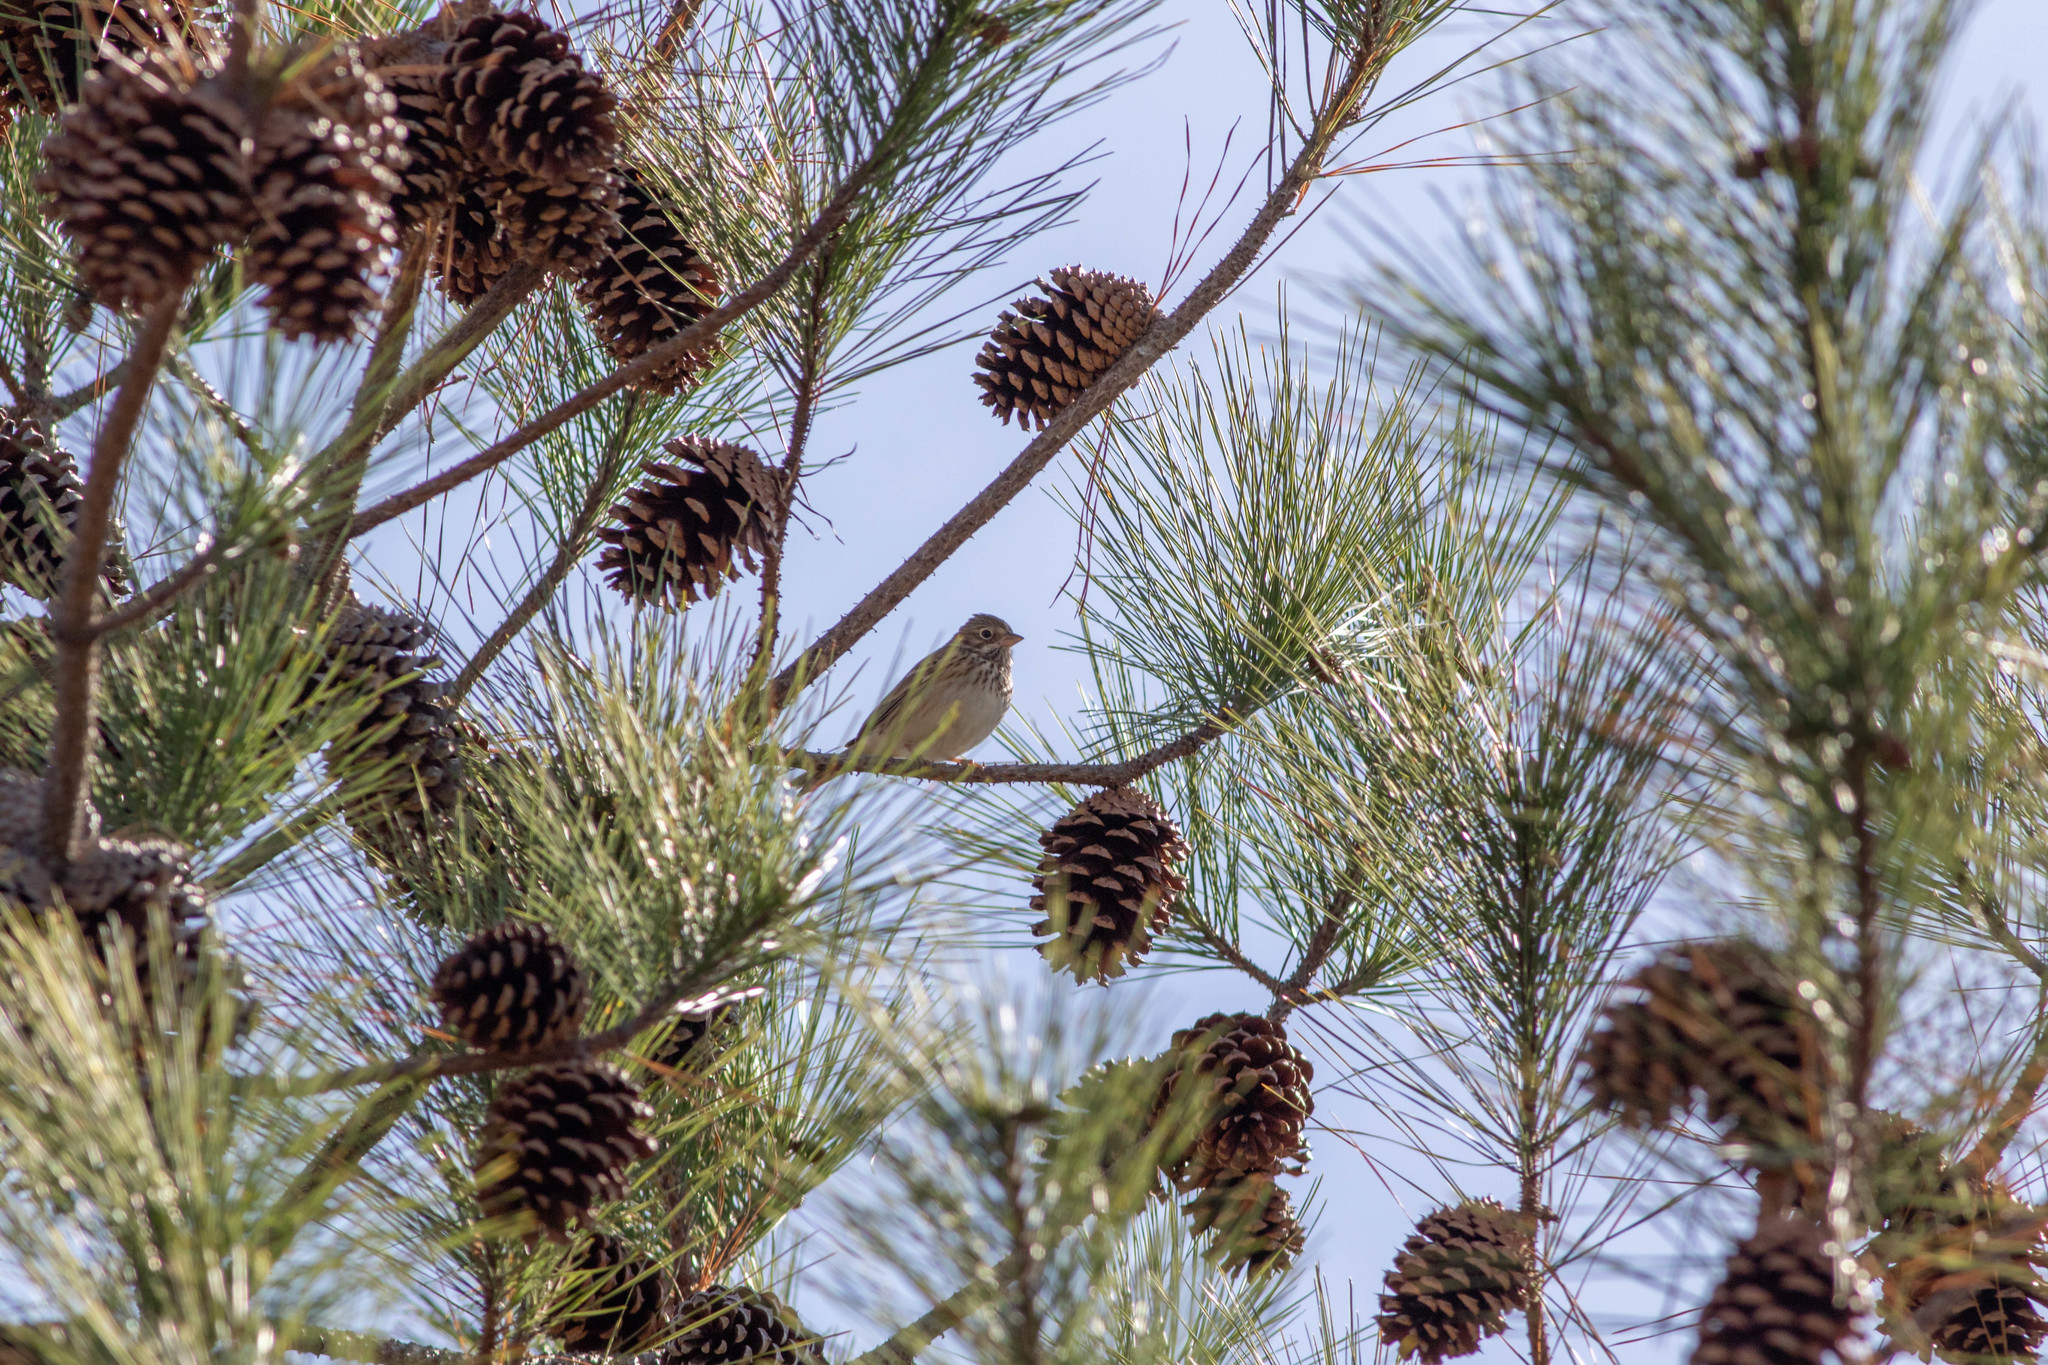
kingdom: Animalia
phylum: Chordata
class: Aves
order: Passeriformes
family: Passerellidae
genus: Pooecetes
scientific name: Pooecetes gramineus
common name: Vesper sparrow
